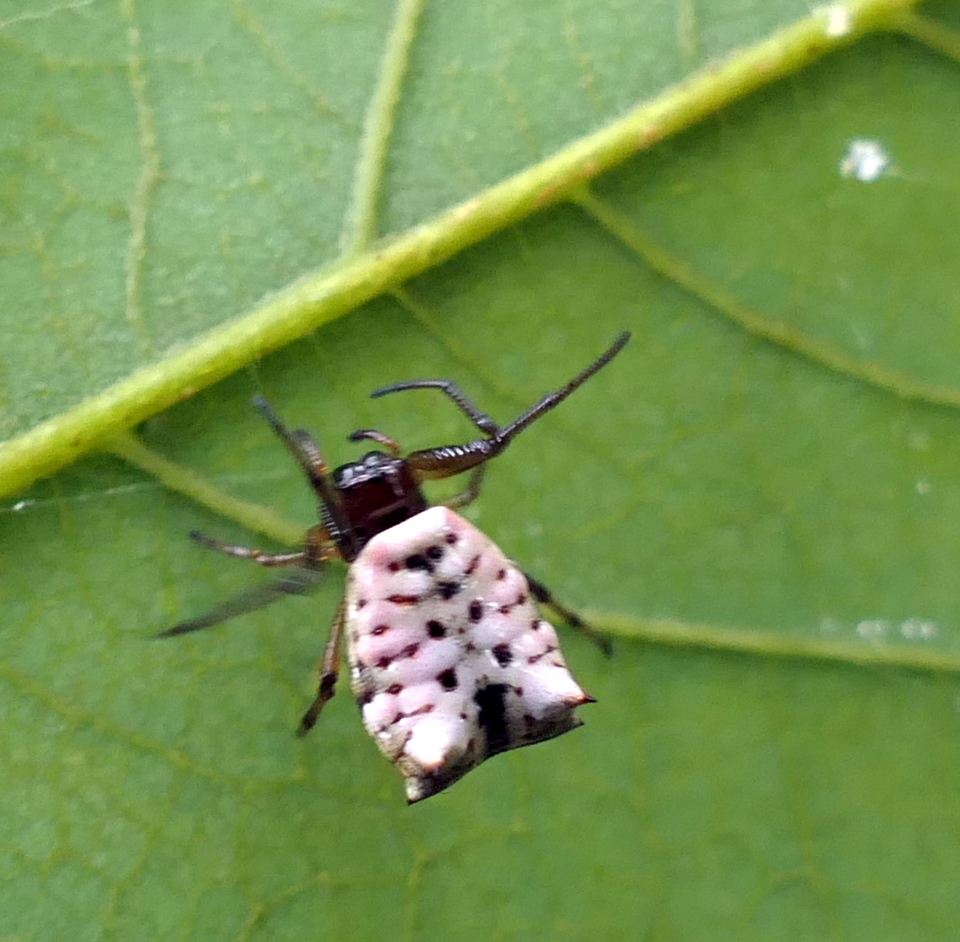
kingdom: Animalia
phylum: Arthropoda
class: Arachnida
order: Araneae
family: Araneidae
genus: Micrathena
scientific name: Micrathena patruelis
